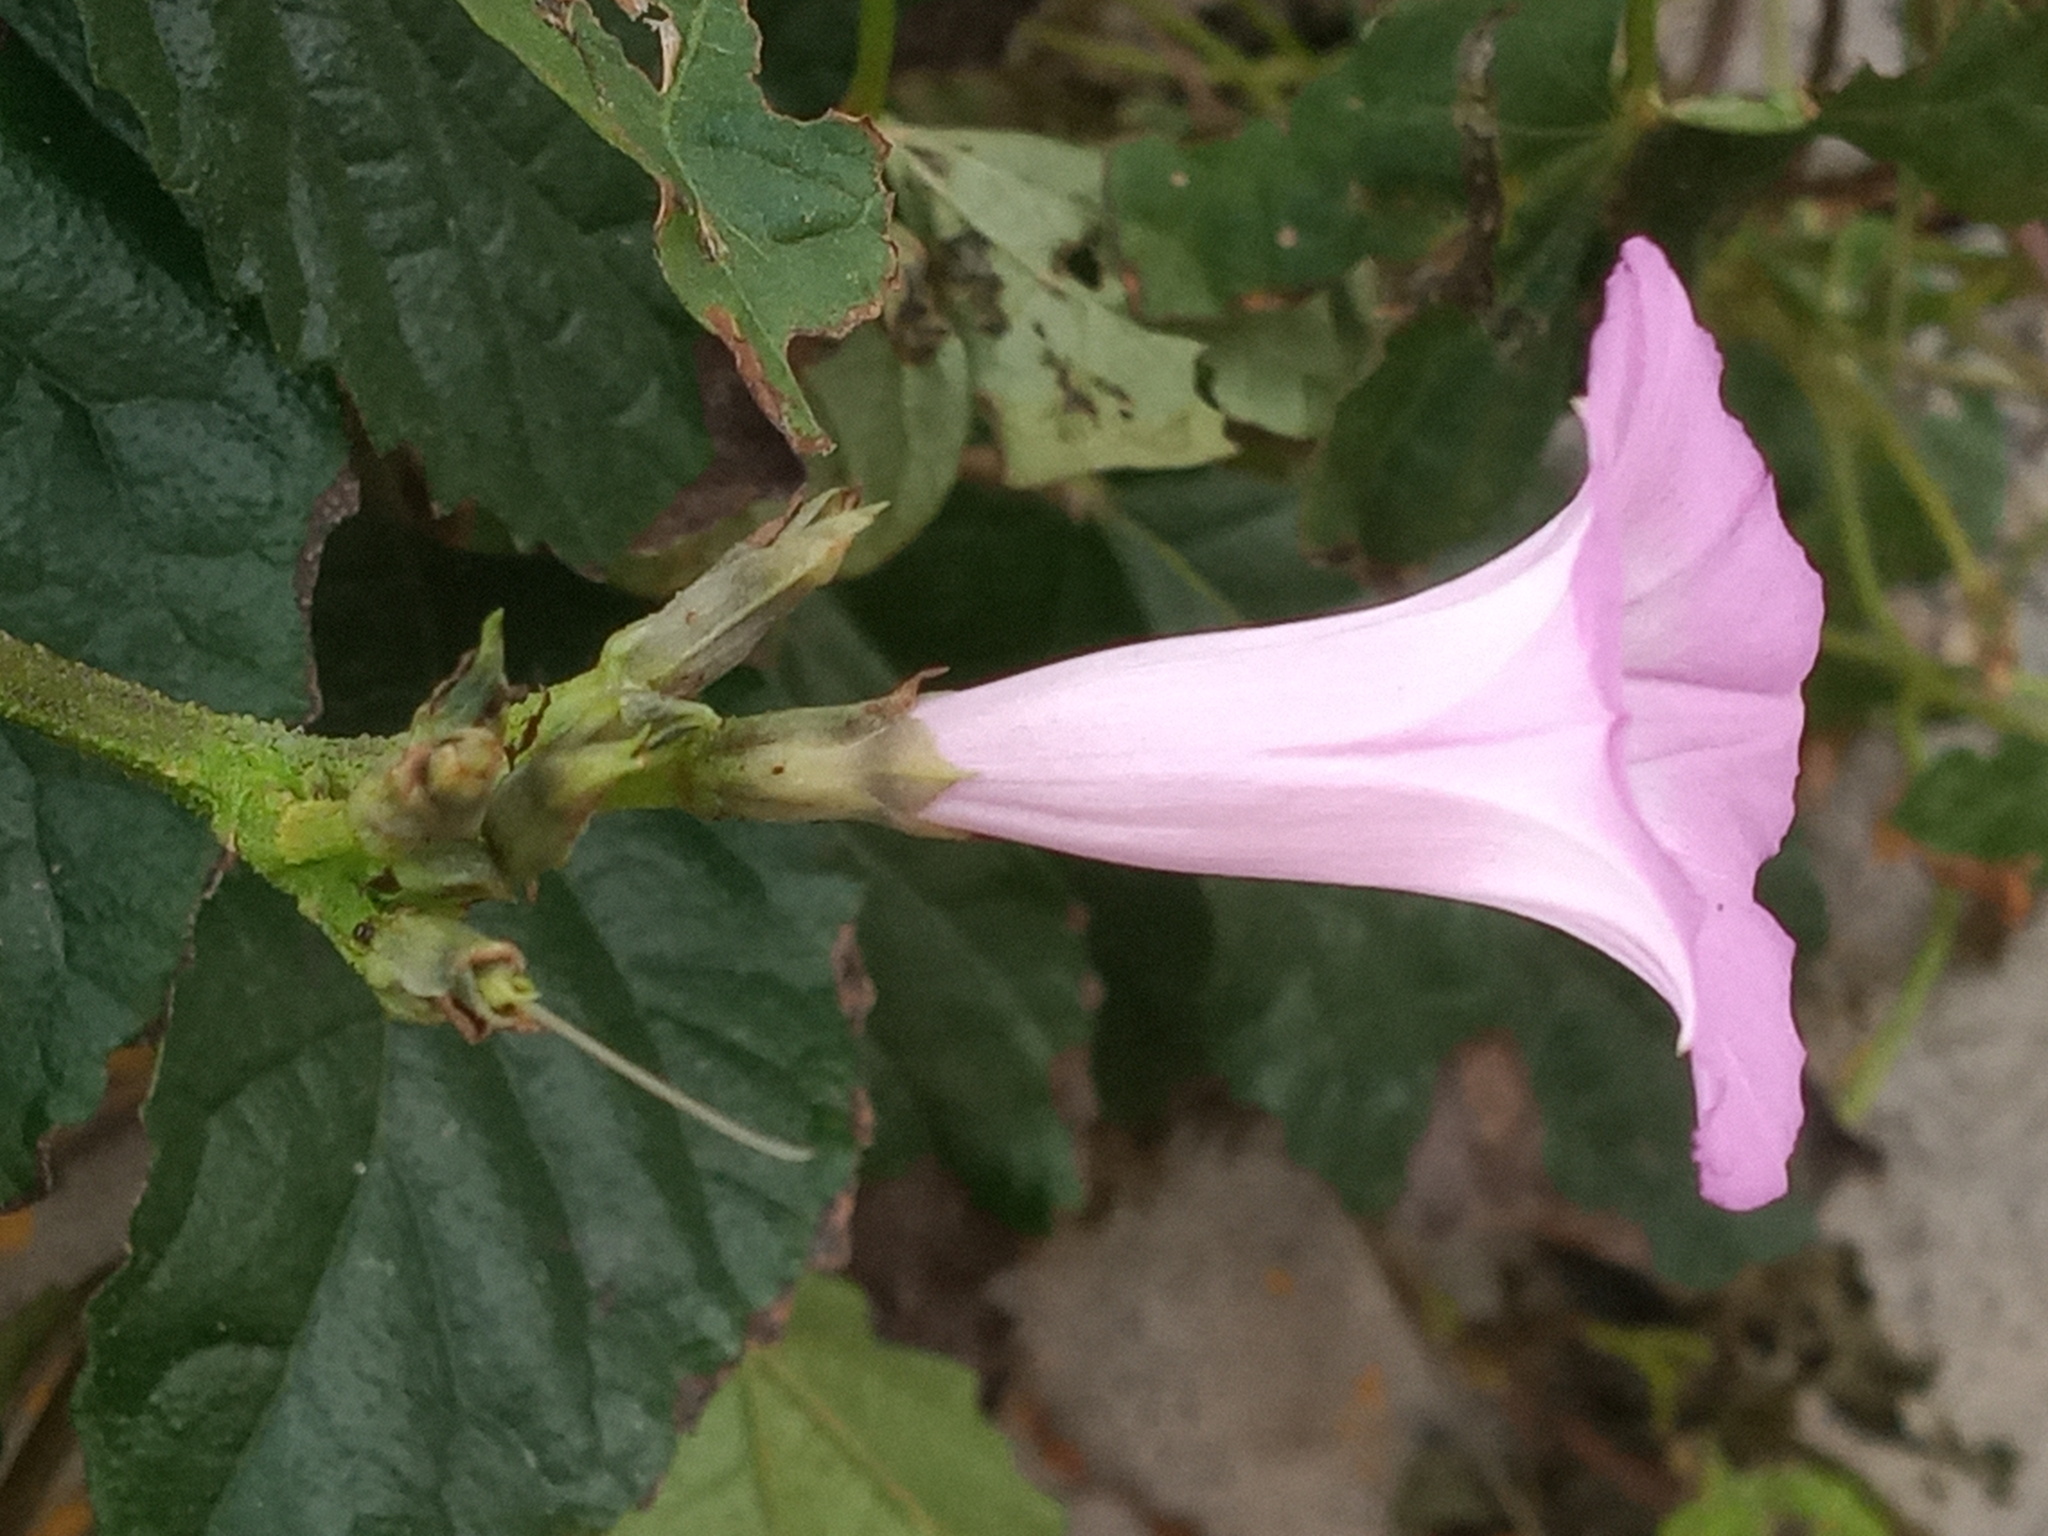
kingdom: Plantae
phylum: Tracheophyta
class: Magnoliopsida
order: Solanales
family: Convolvulaceae
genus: Ipomoea
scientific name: Ipomoea cordatotriloba
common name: Cotton morning glory
